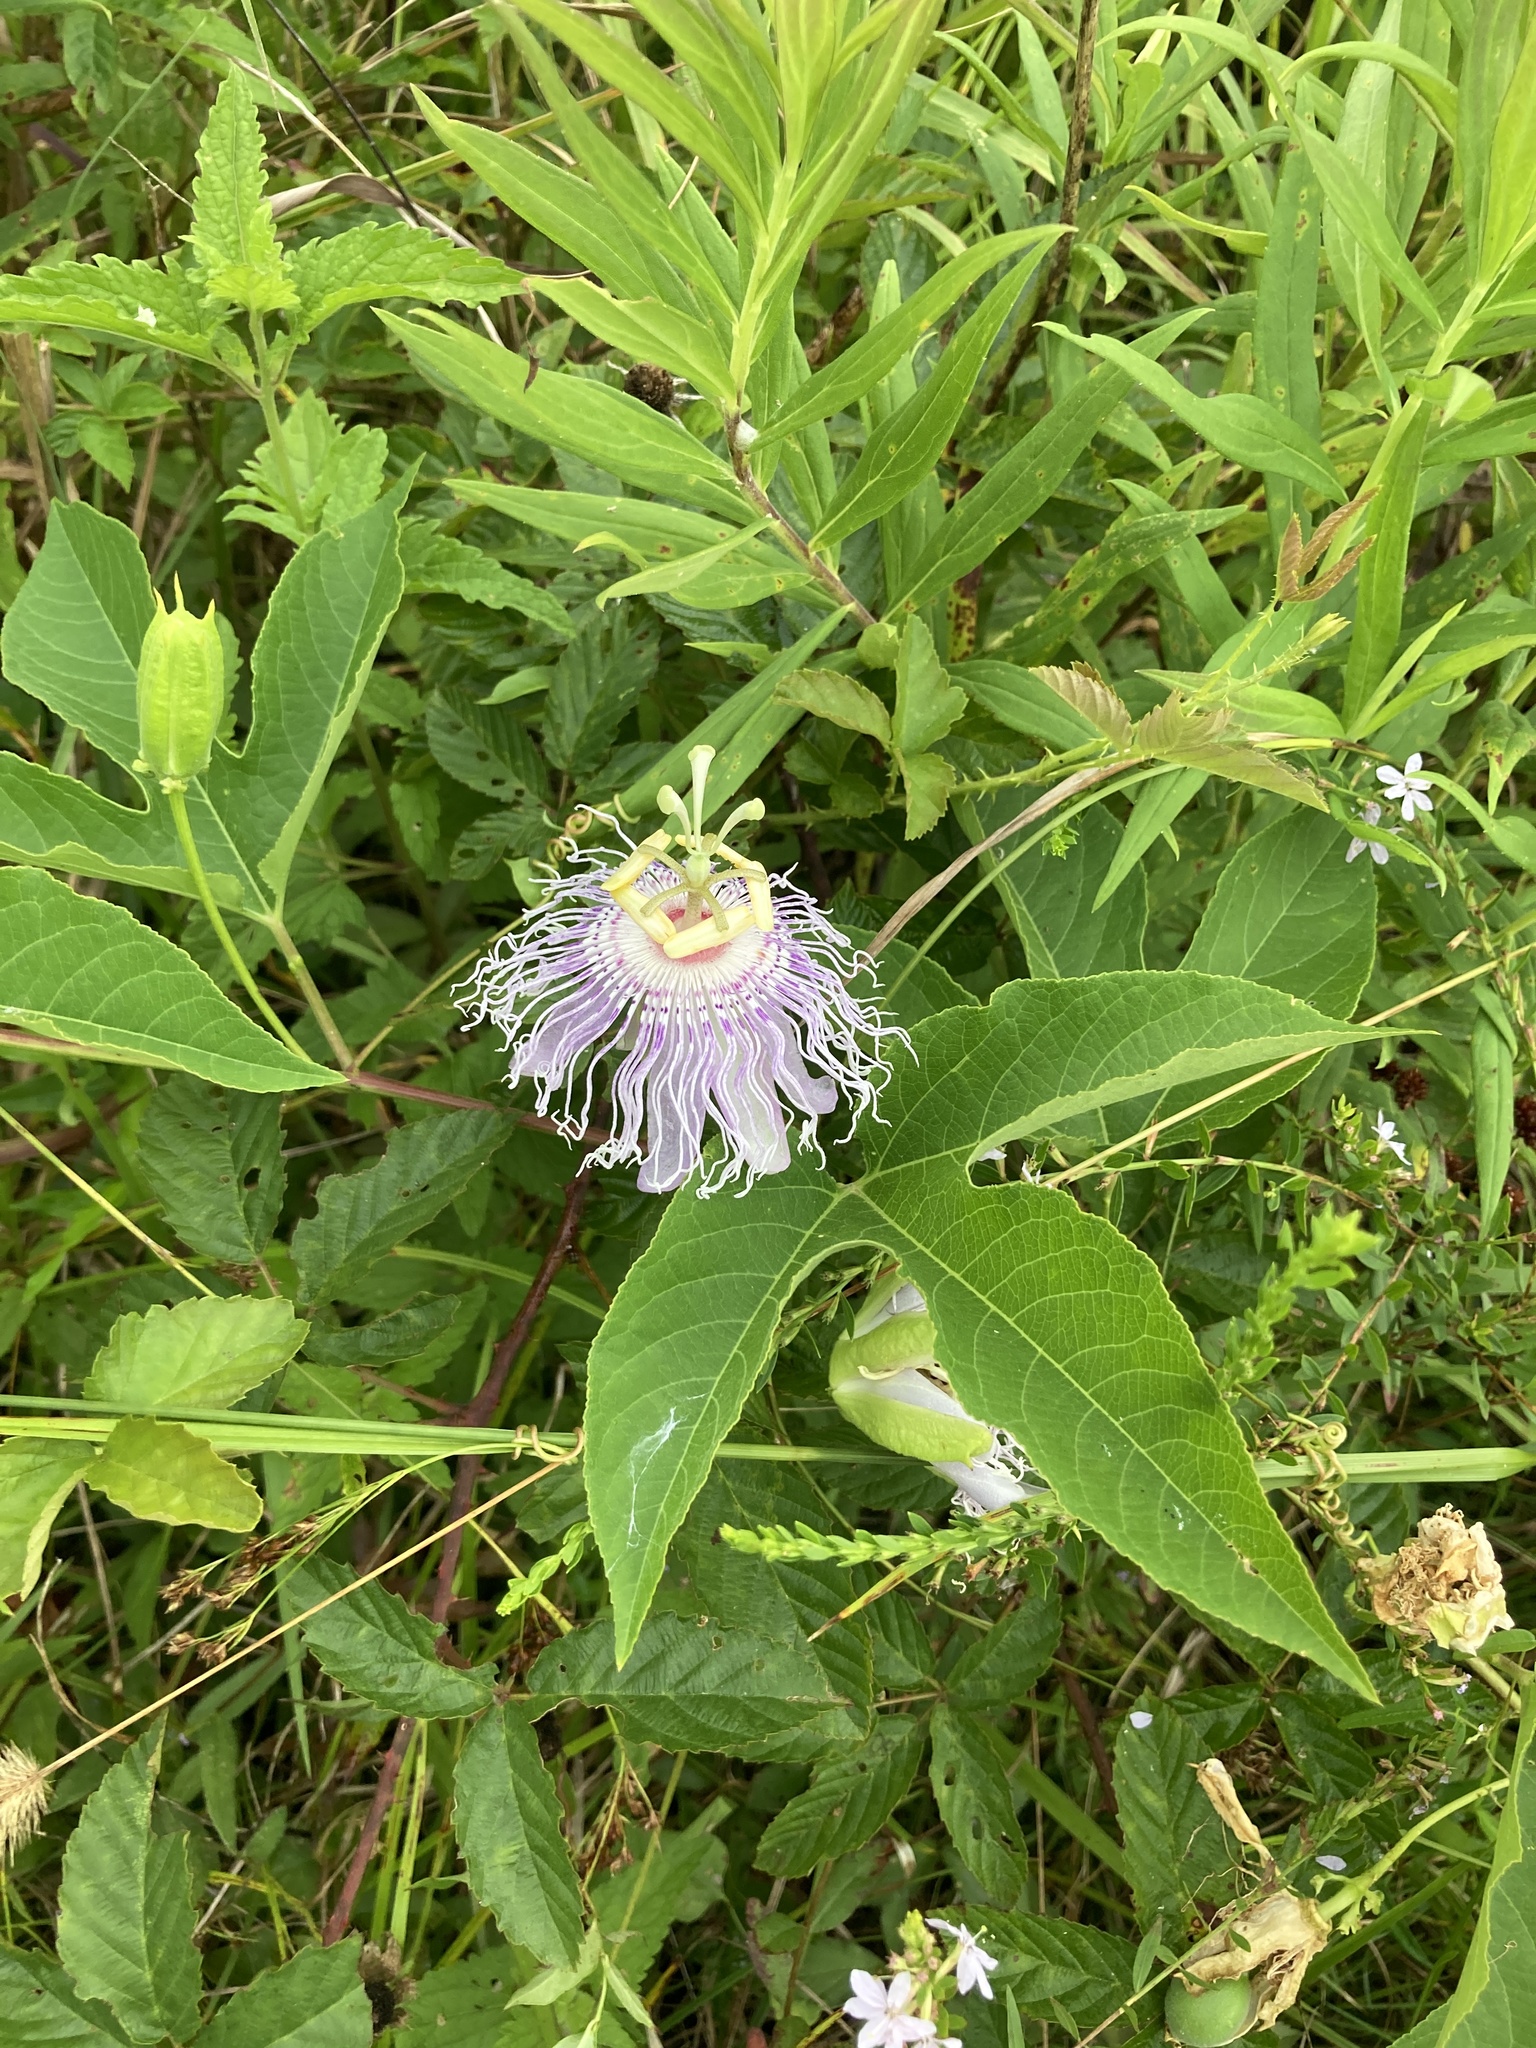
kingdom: Plantae
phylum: Tracheophyta
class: Magnoliopsida
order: Malpighiales
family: Passifloraceae
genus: Passiflora
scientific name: Passiflora incarnata
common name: Apricot-vine
